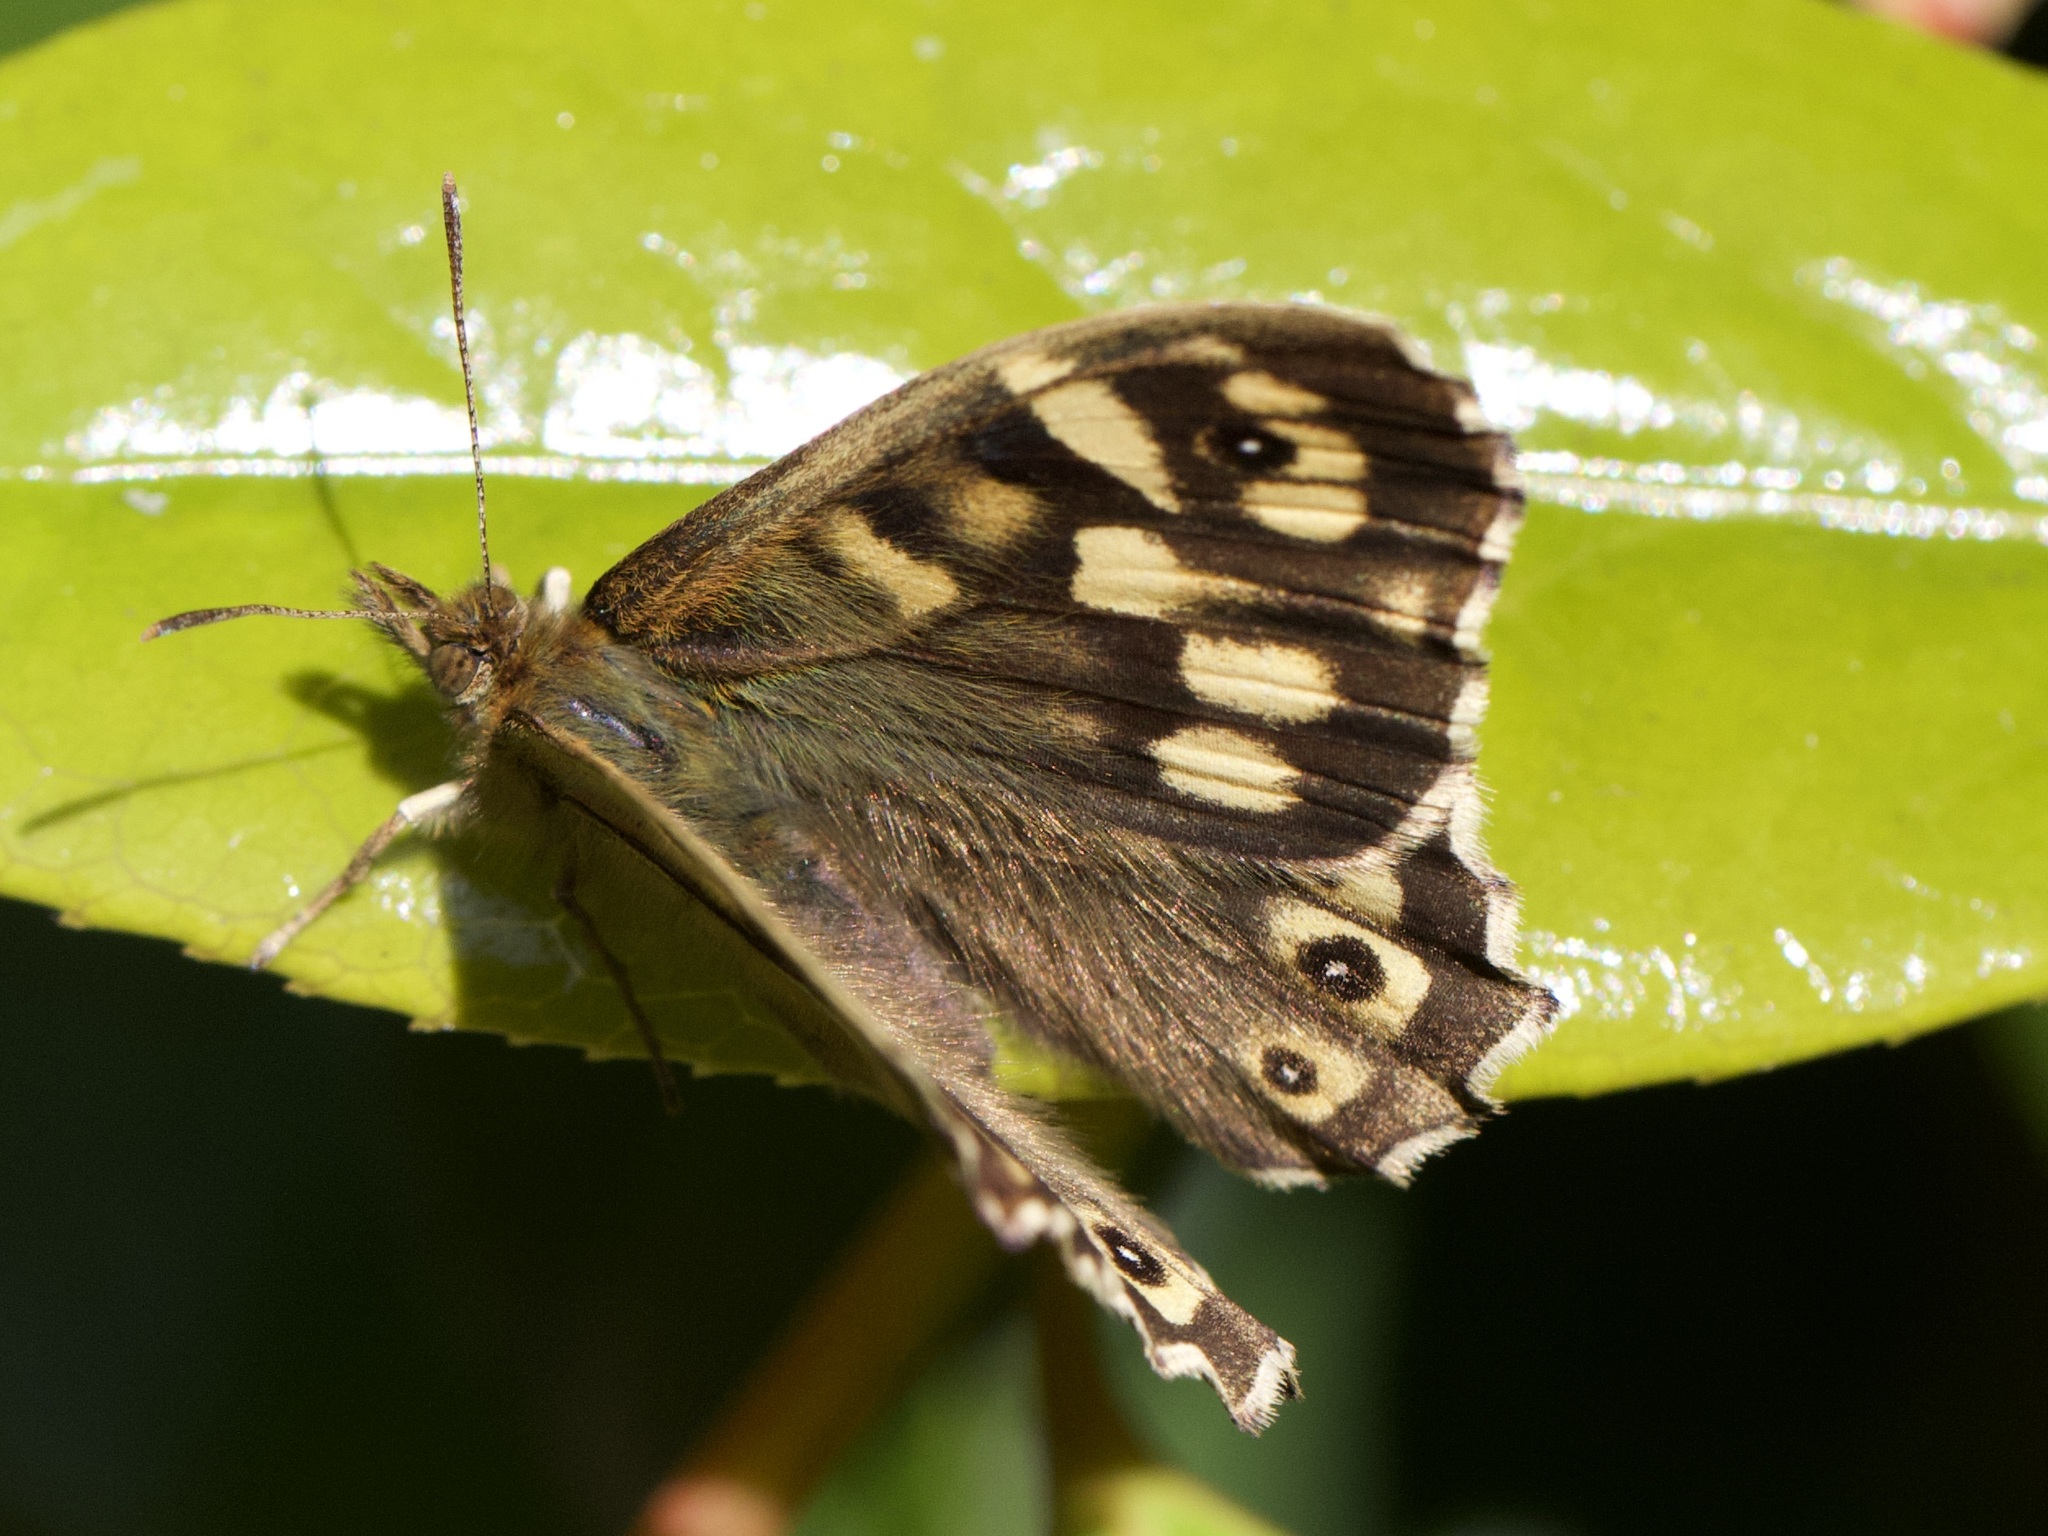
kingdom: Animalia
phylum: Arthropoda
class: Insecta
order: Lepidoptera
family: Nymphalidae
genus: Pararge
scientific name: Pararge aegeria
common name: Speckled wood
